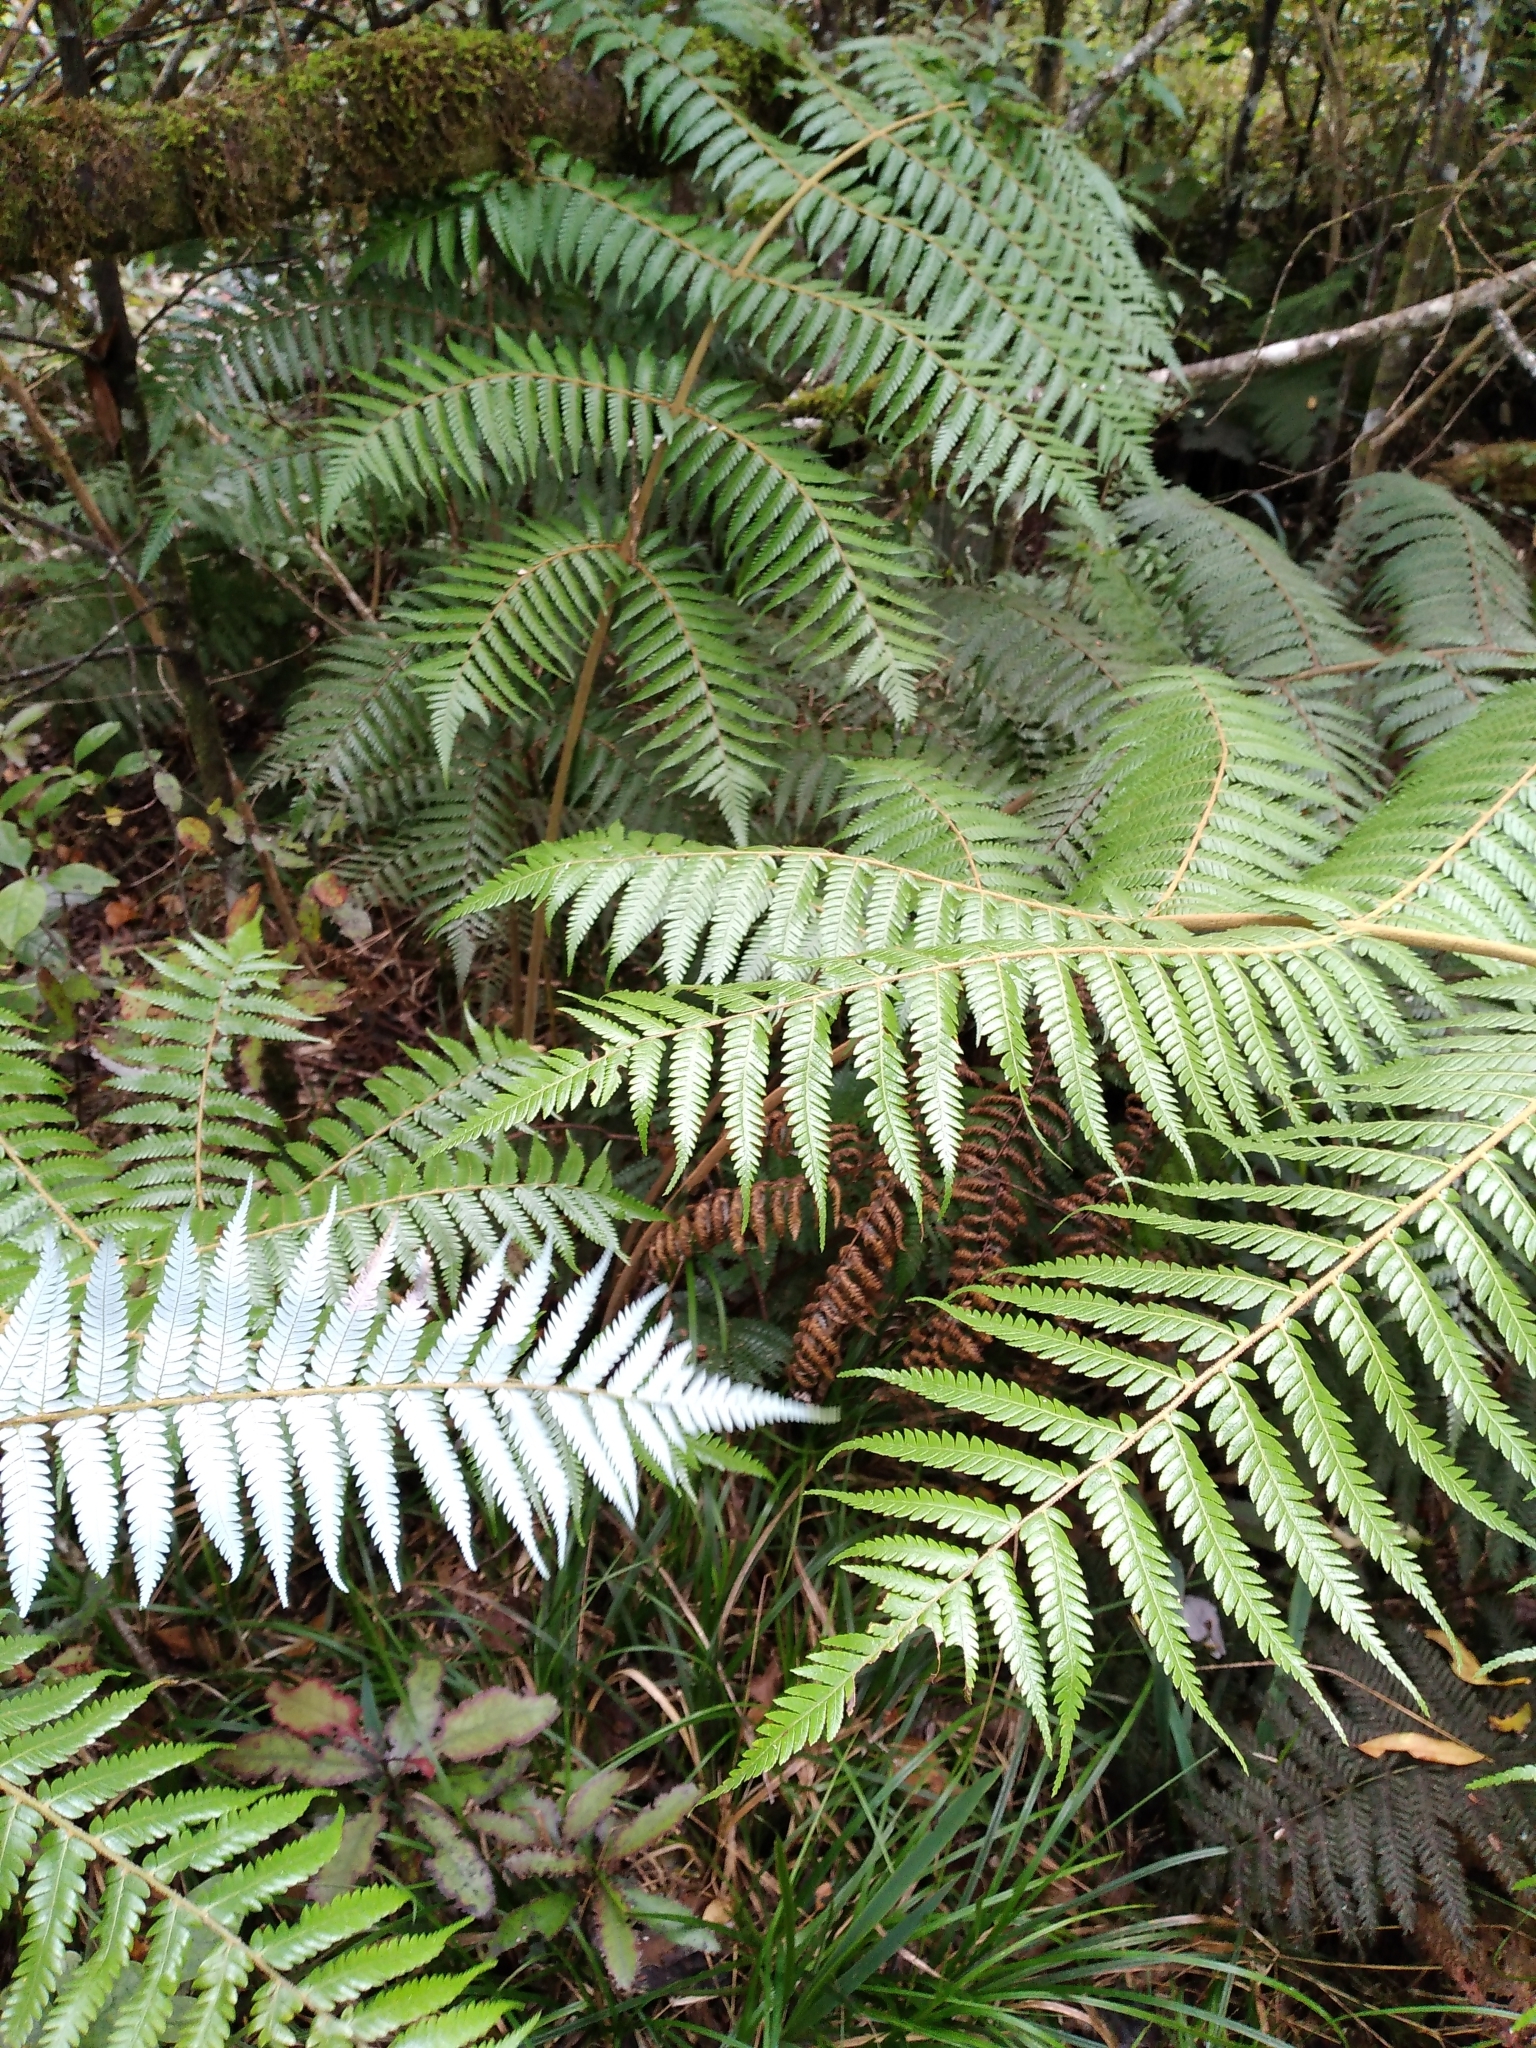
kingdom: Plantae
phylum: Tracheophyta
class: Polypodiopsida
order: Cyatheales
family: Cyatheaceae
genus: Alsophila
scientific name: Alsophila dealbata
